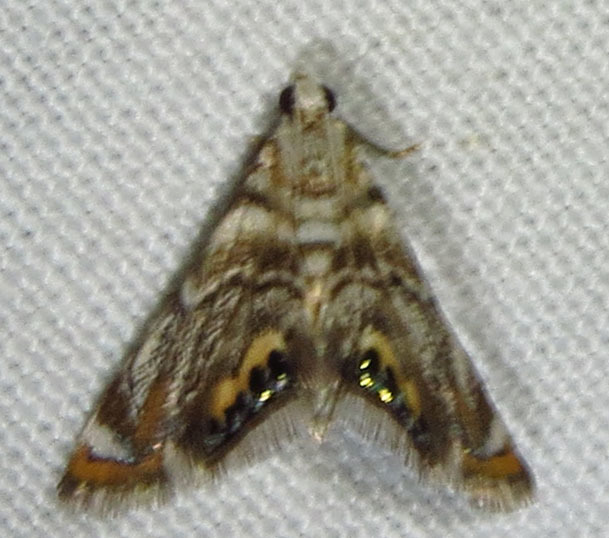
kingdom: Animalia
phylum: Arthropoda
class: Insecta
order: Lepidoptera
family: Crambidae
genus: Eoparargyractis
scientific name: Eoparargyractis irroratalis
